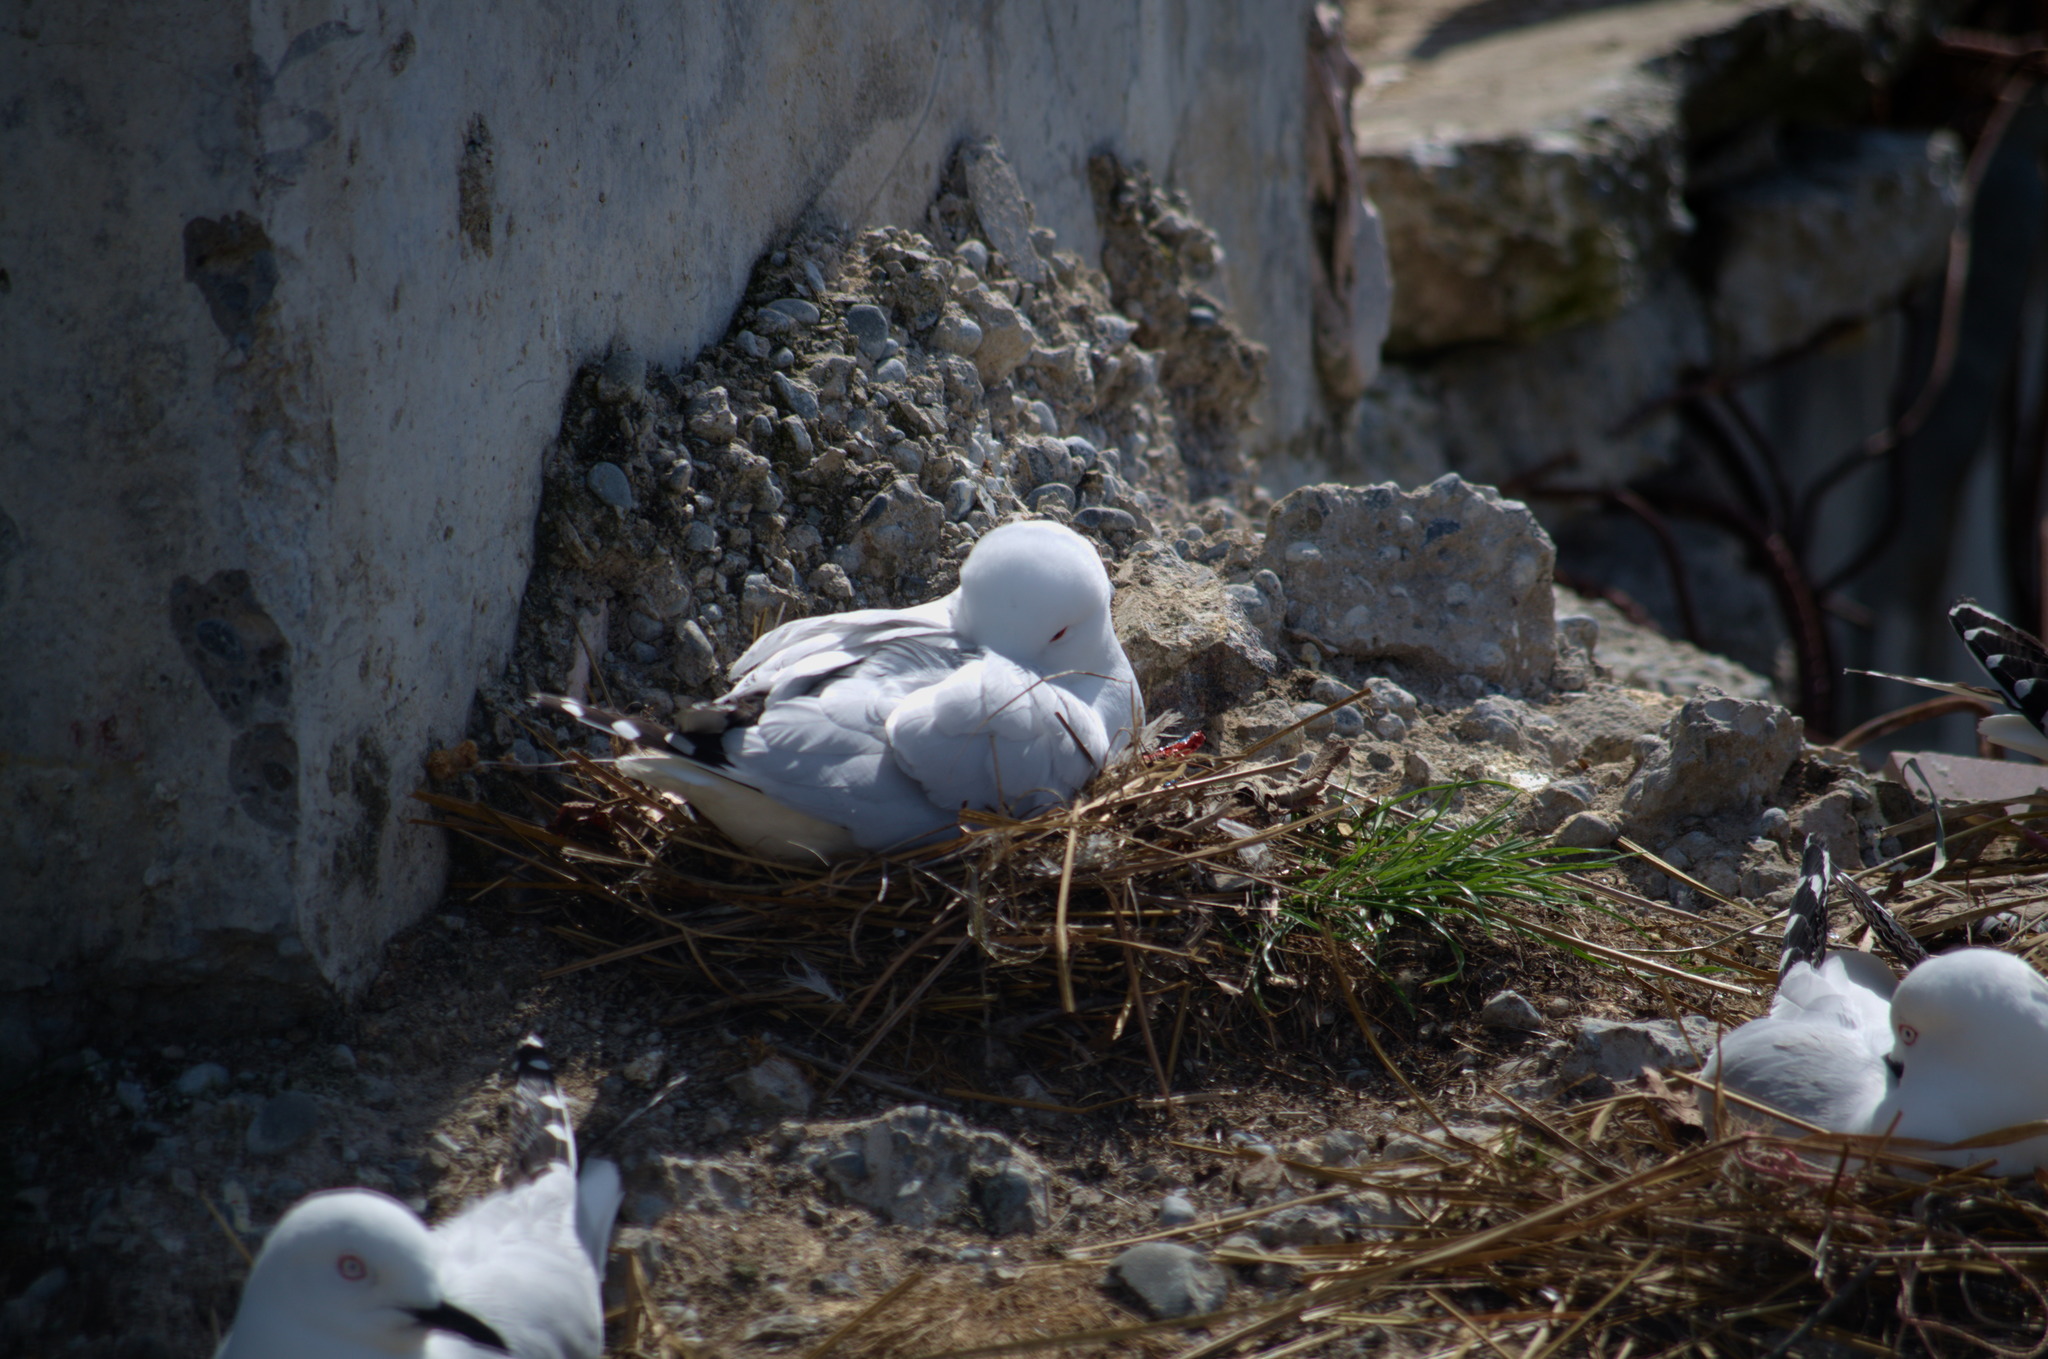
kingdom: Animalia
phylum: Chordata
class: Aves
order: Charadriiformes
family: Laridae
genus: Chroicocephalus
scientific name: Chroicocephalus bulleri
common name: Black-billed gull
